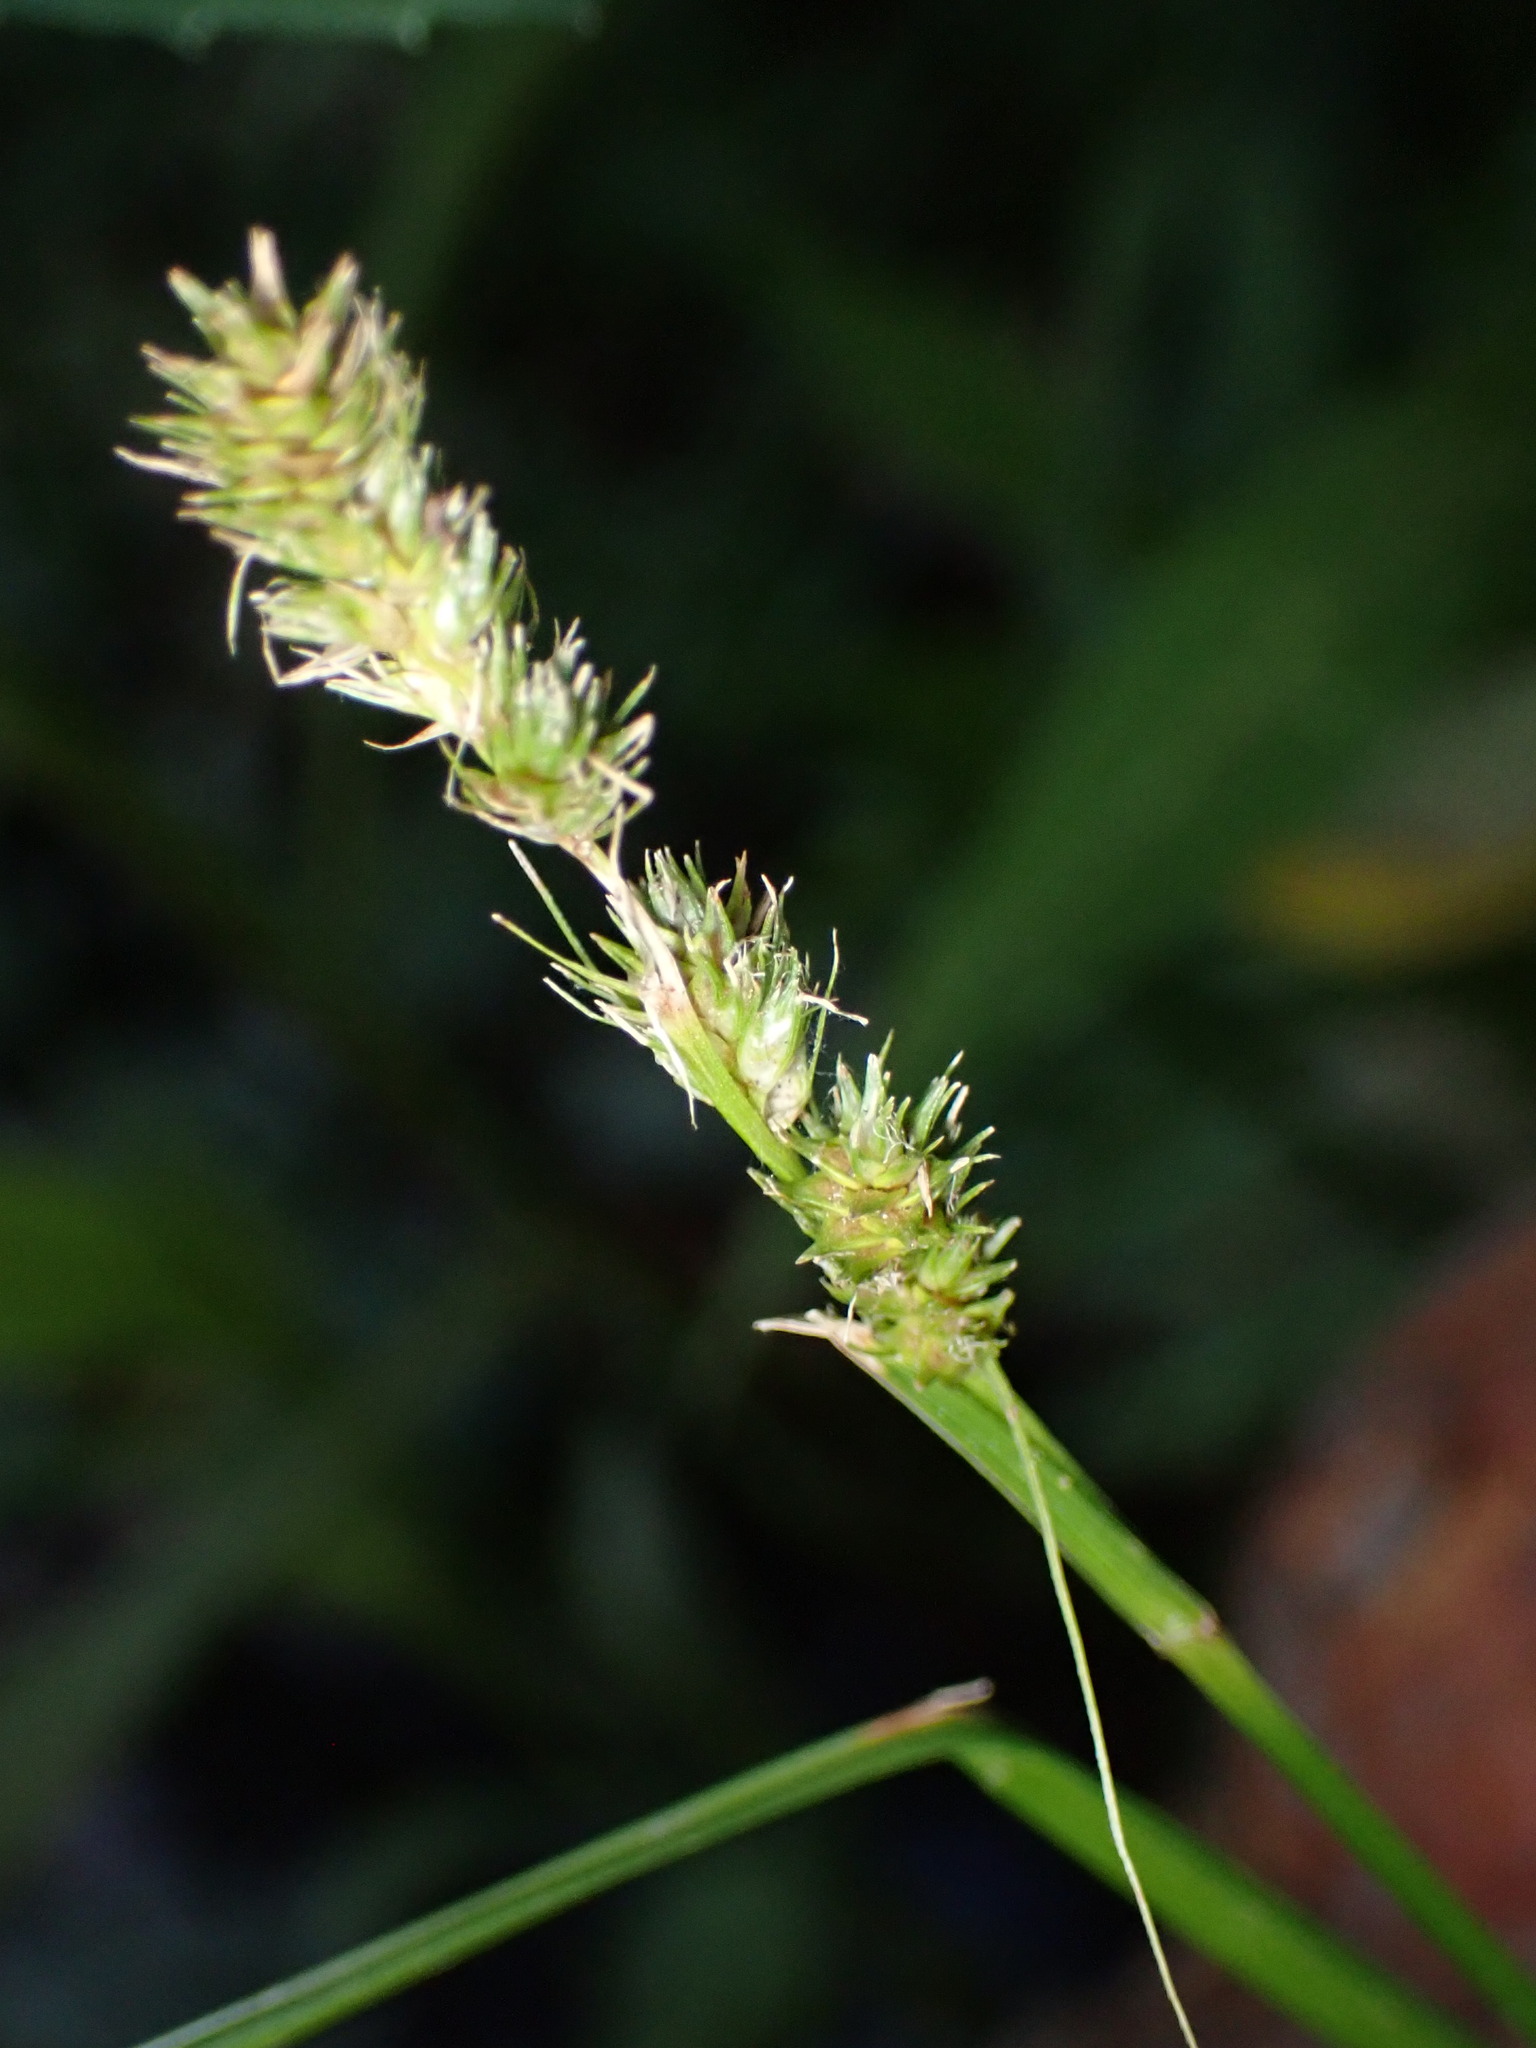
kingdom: Plantae
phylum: Tracheophyta
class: Liliopsida
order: Poales
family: Cyperaceae
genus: Carex
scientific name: Carex vulpinoidea
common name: American fox-sedge
